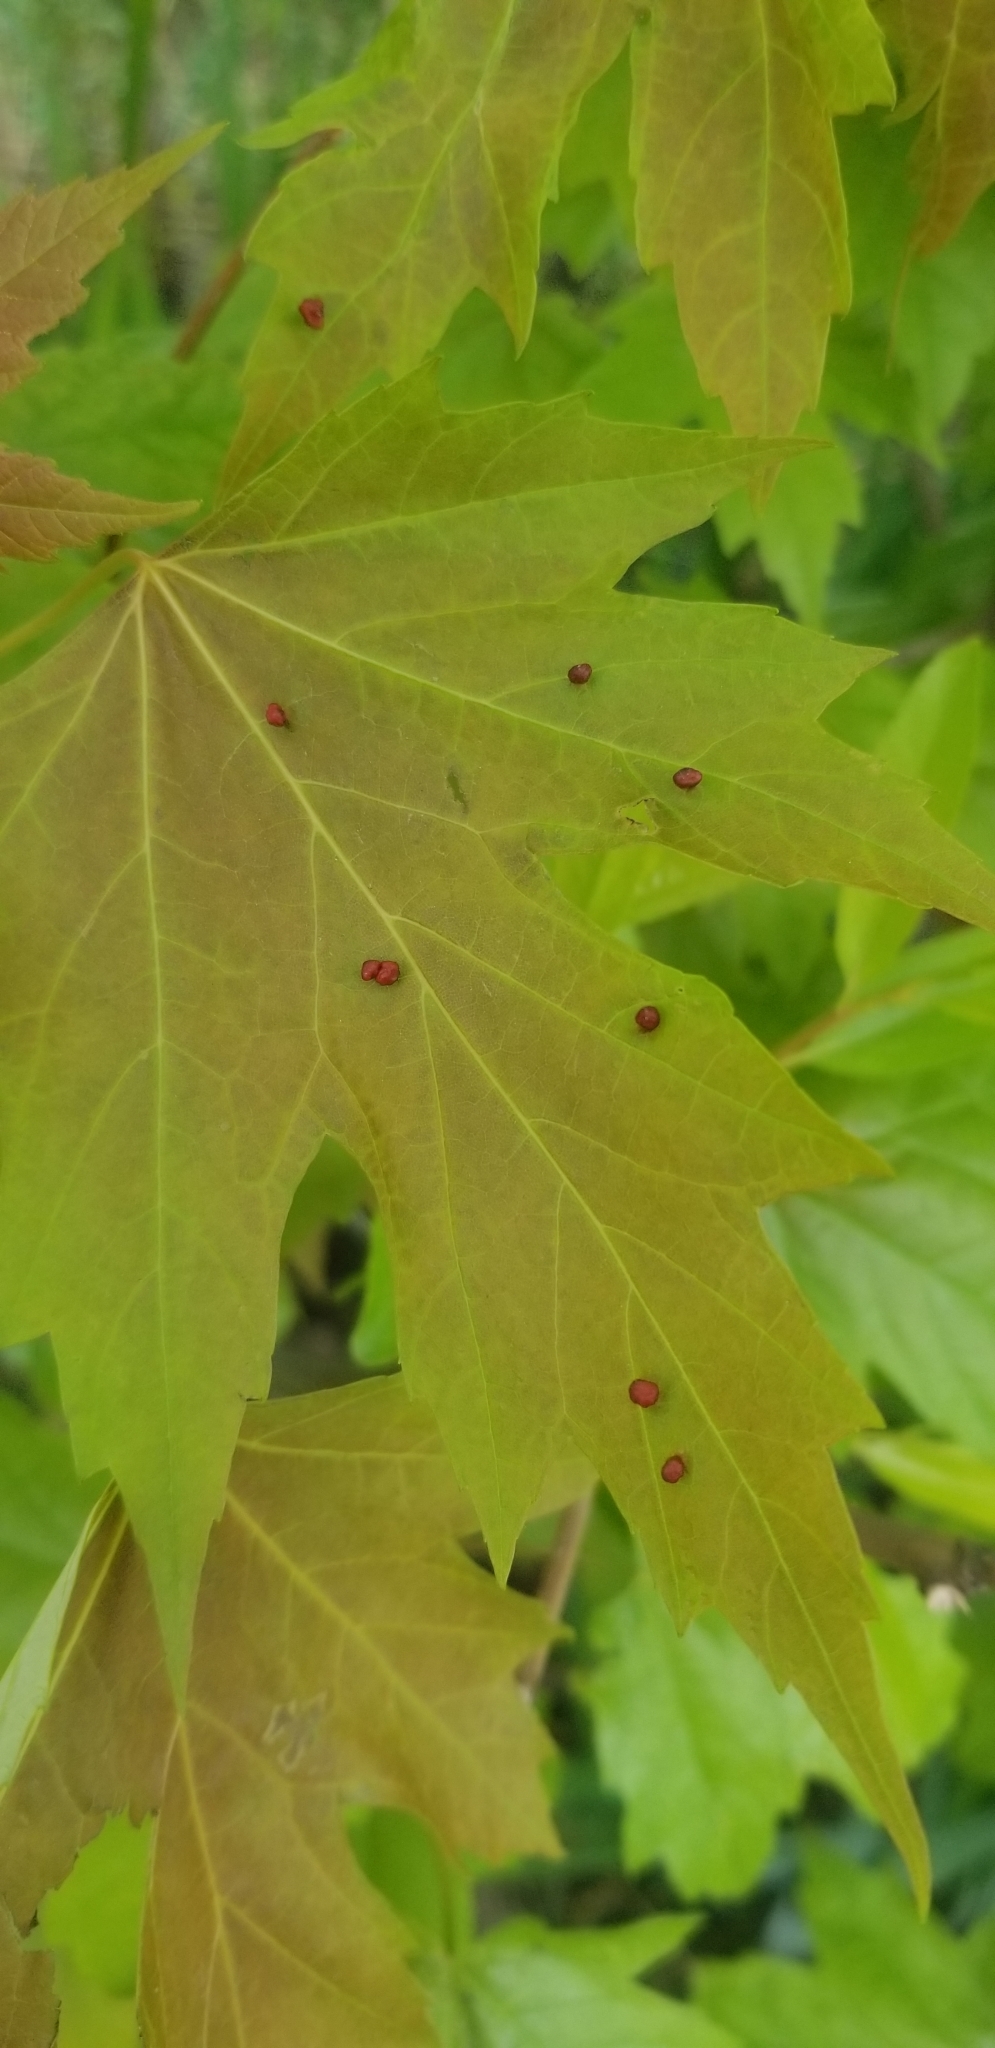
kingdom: Animalia
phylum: Arthropoda
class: Arachnida
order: Trombidiformes
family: Eriophyidae
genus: Vasates
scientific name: Vasates quadripedes
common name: Maple bladder gall mite
